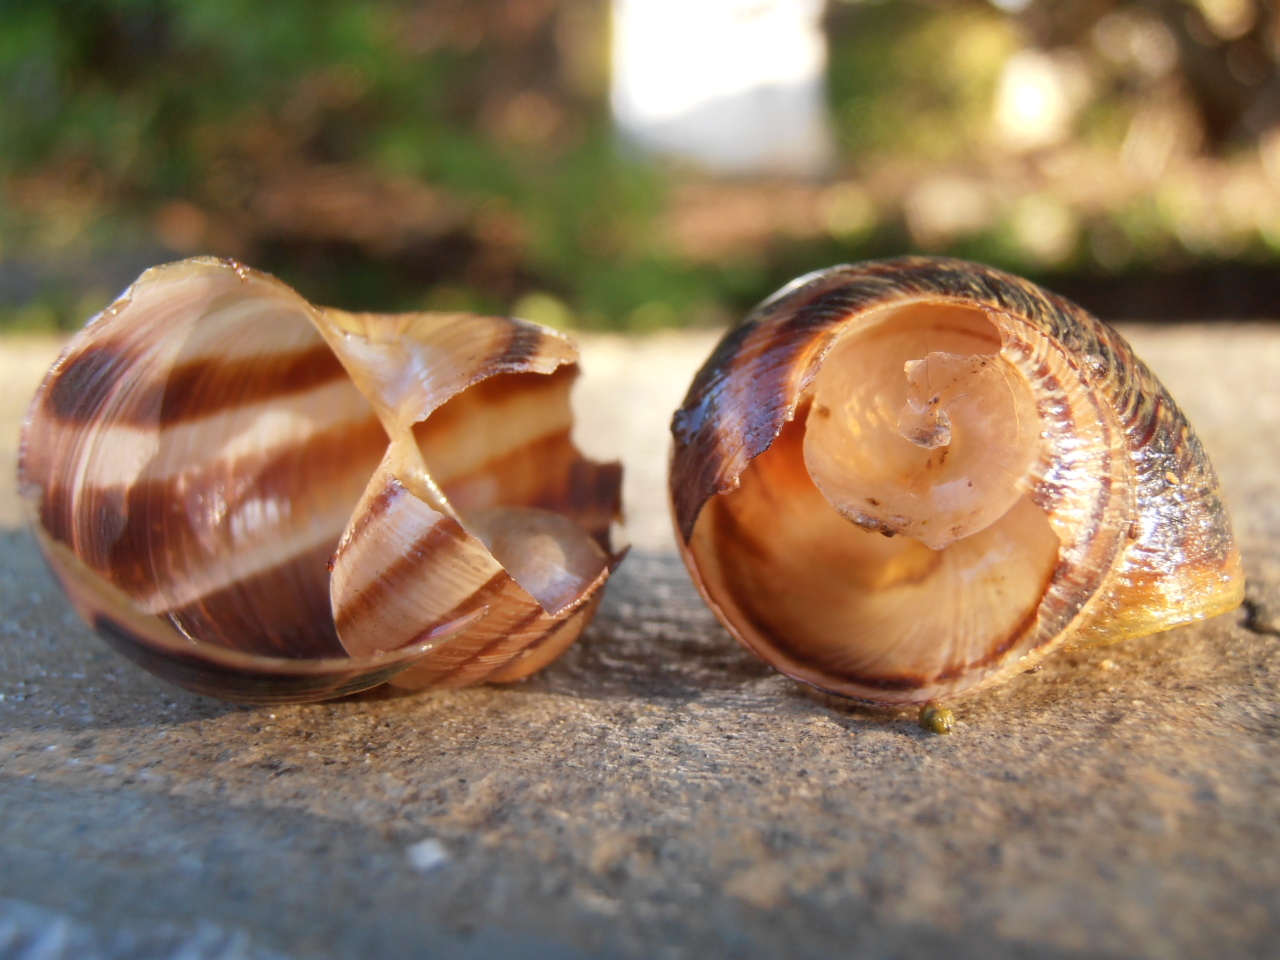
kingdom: Animalia
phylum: Mollusca
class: Gastropoda
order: Stylommatophora
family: Helicidae
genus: Cornu
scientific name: Cornu aspersum
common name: Brown garden snail
